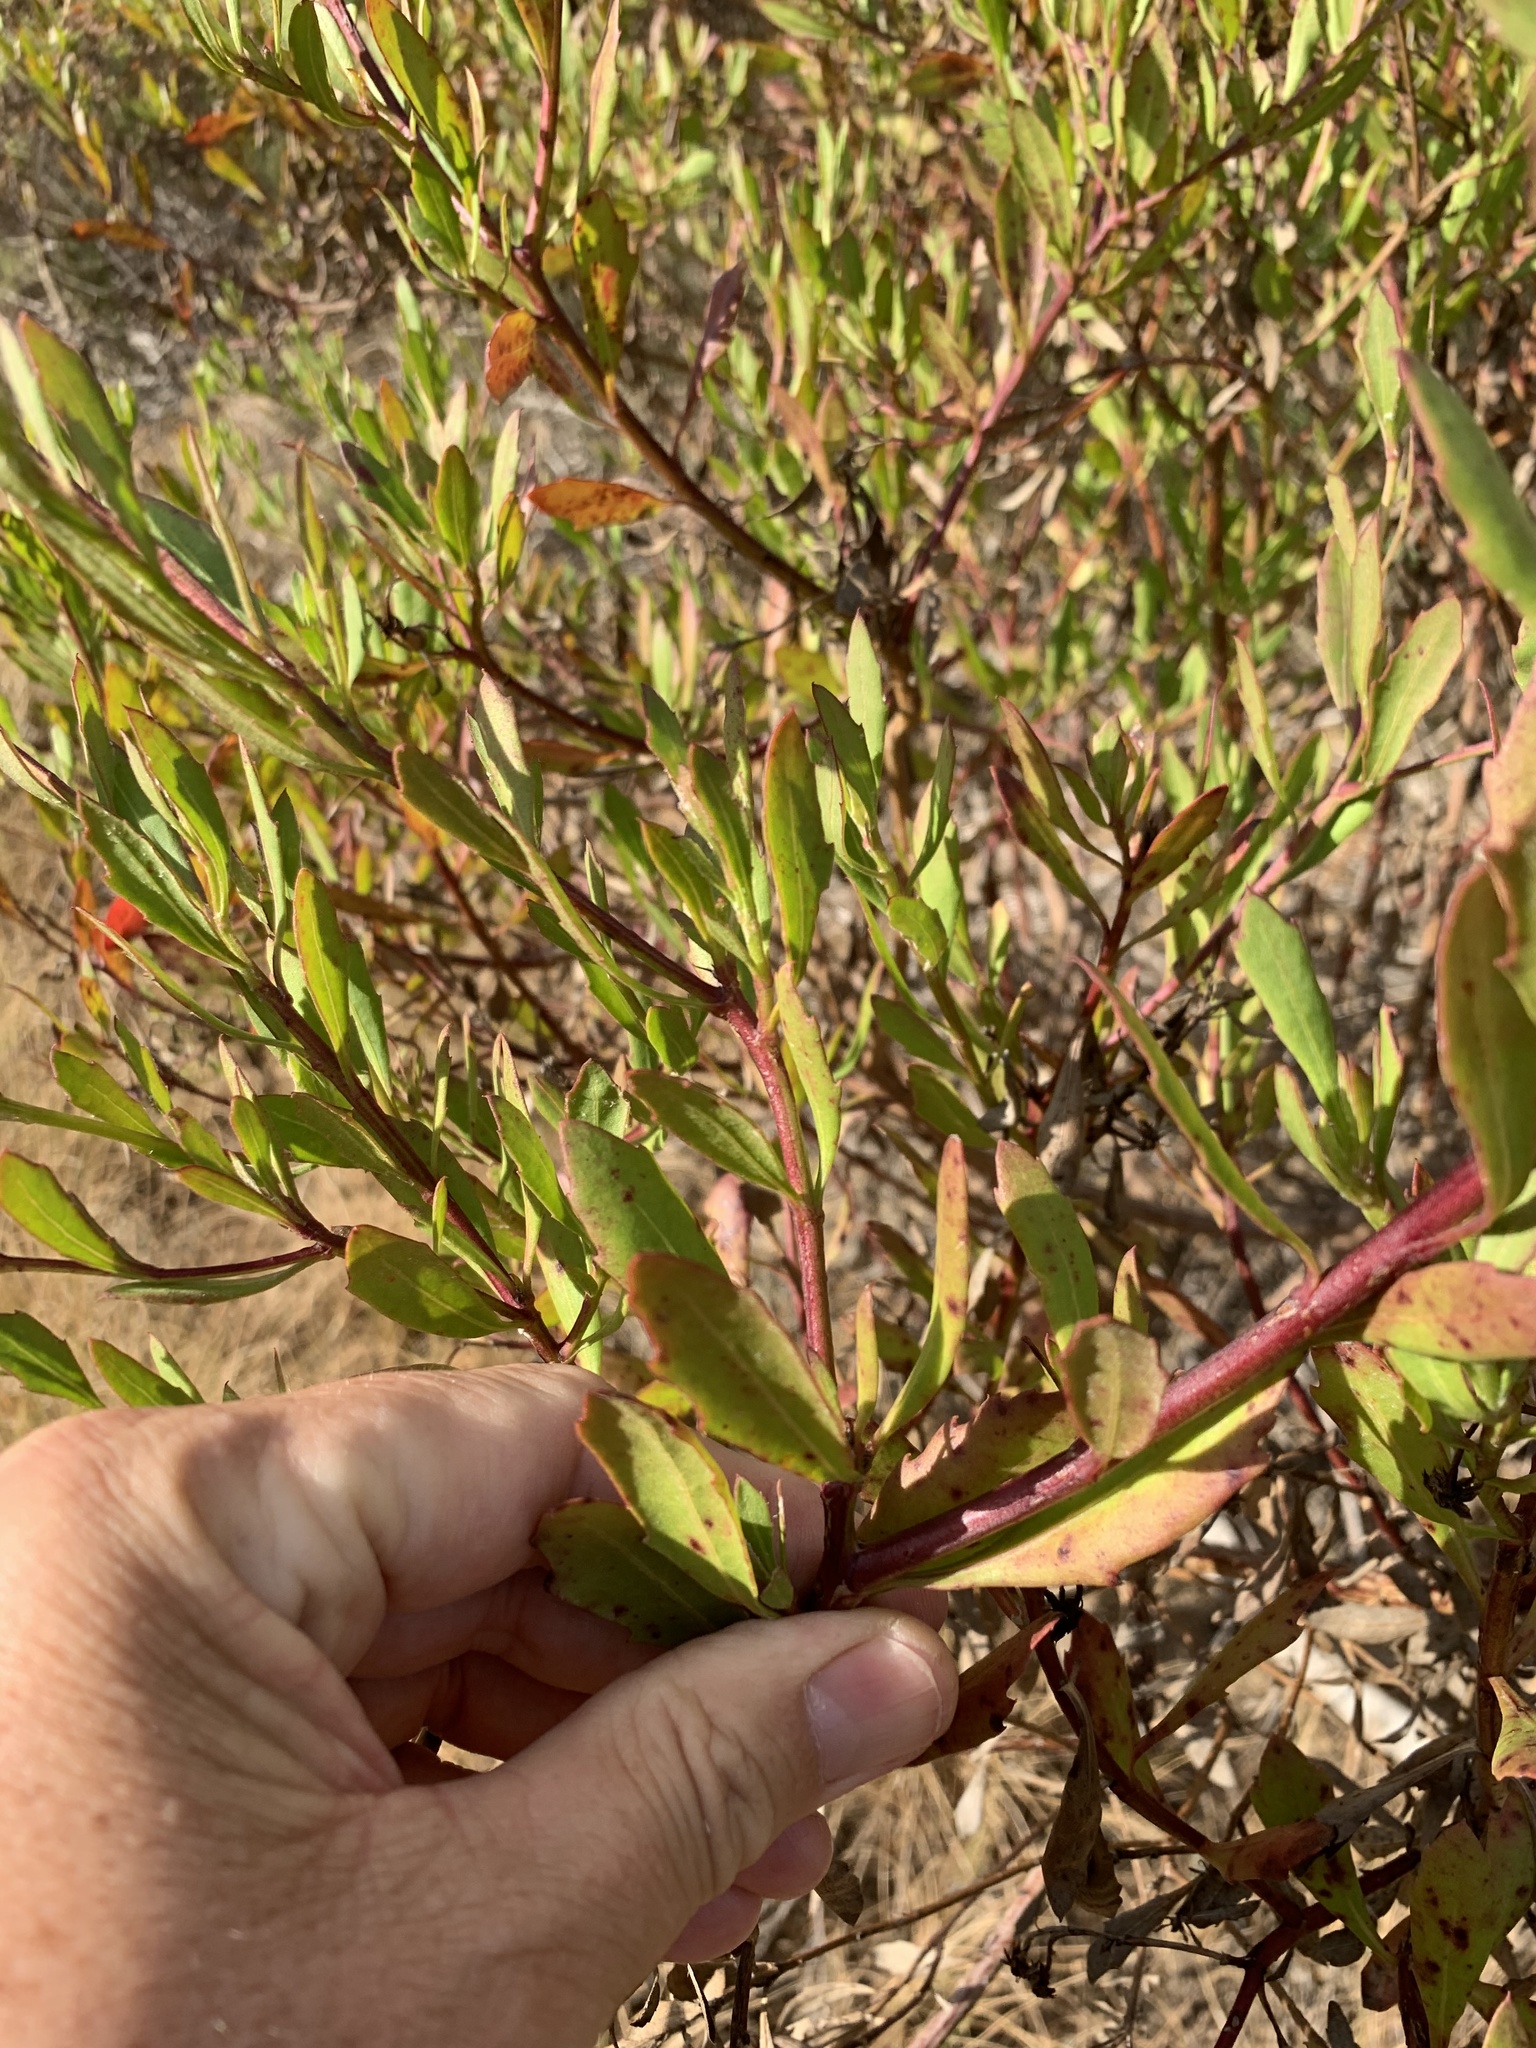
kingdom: Plantae
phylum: Tracheophyta
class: Magnoliopsida
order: Asterales
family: Asteraceae
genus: Osteospermum
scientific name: Osteospermum moniliferum
